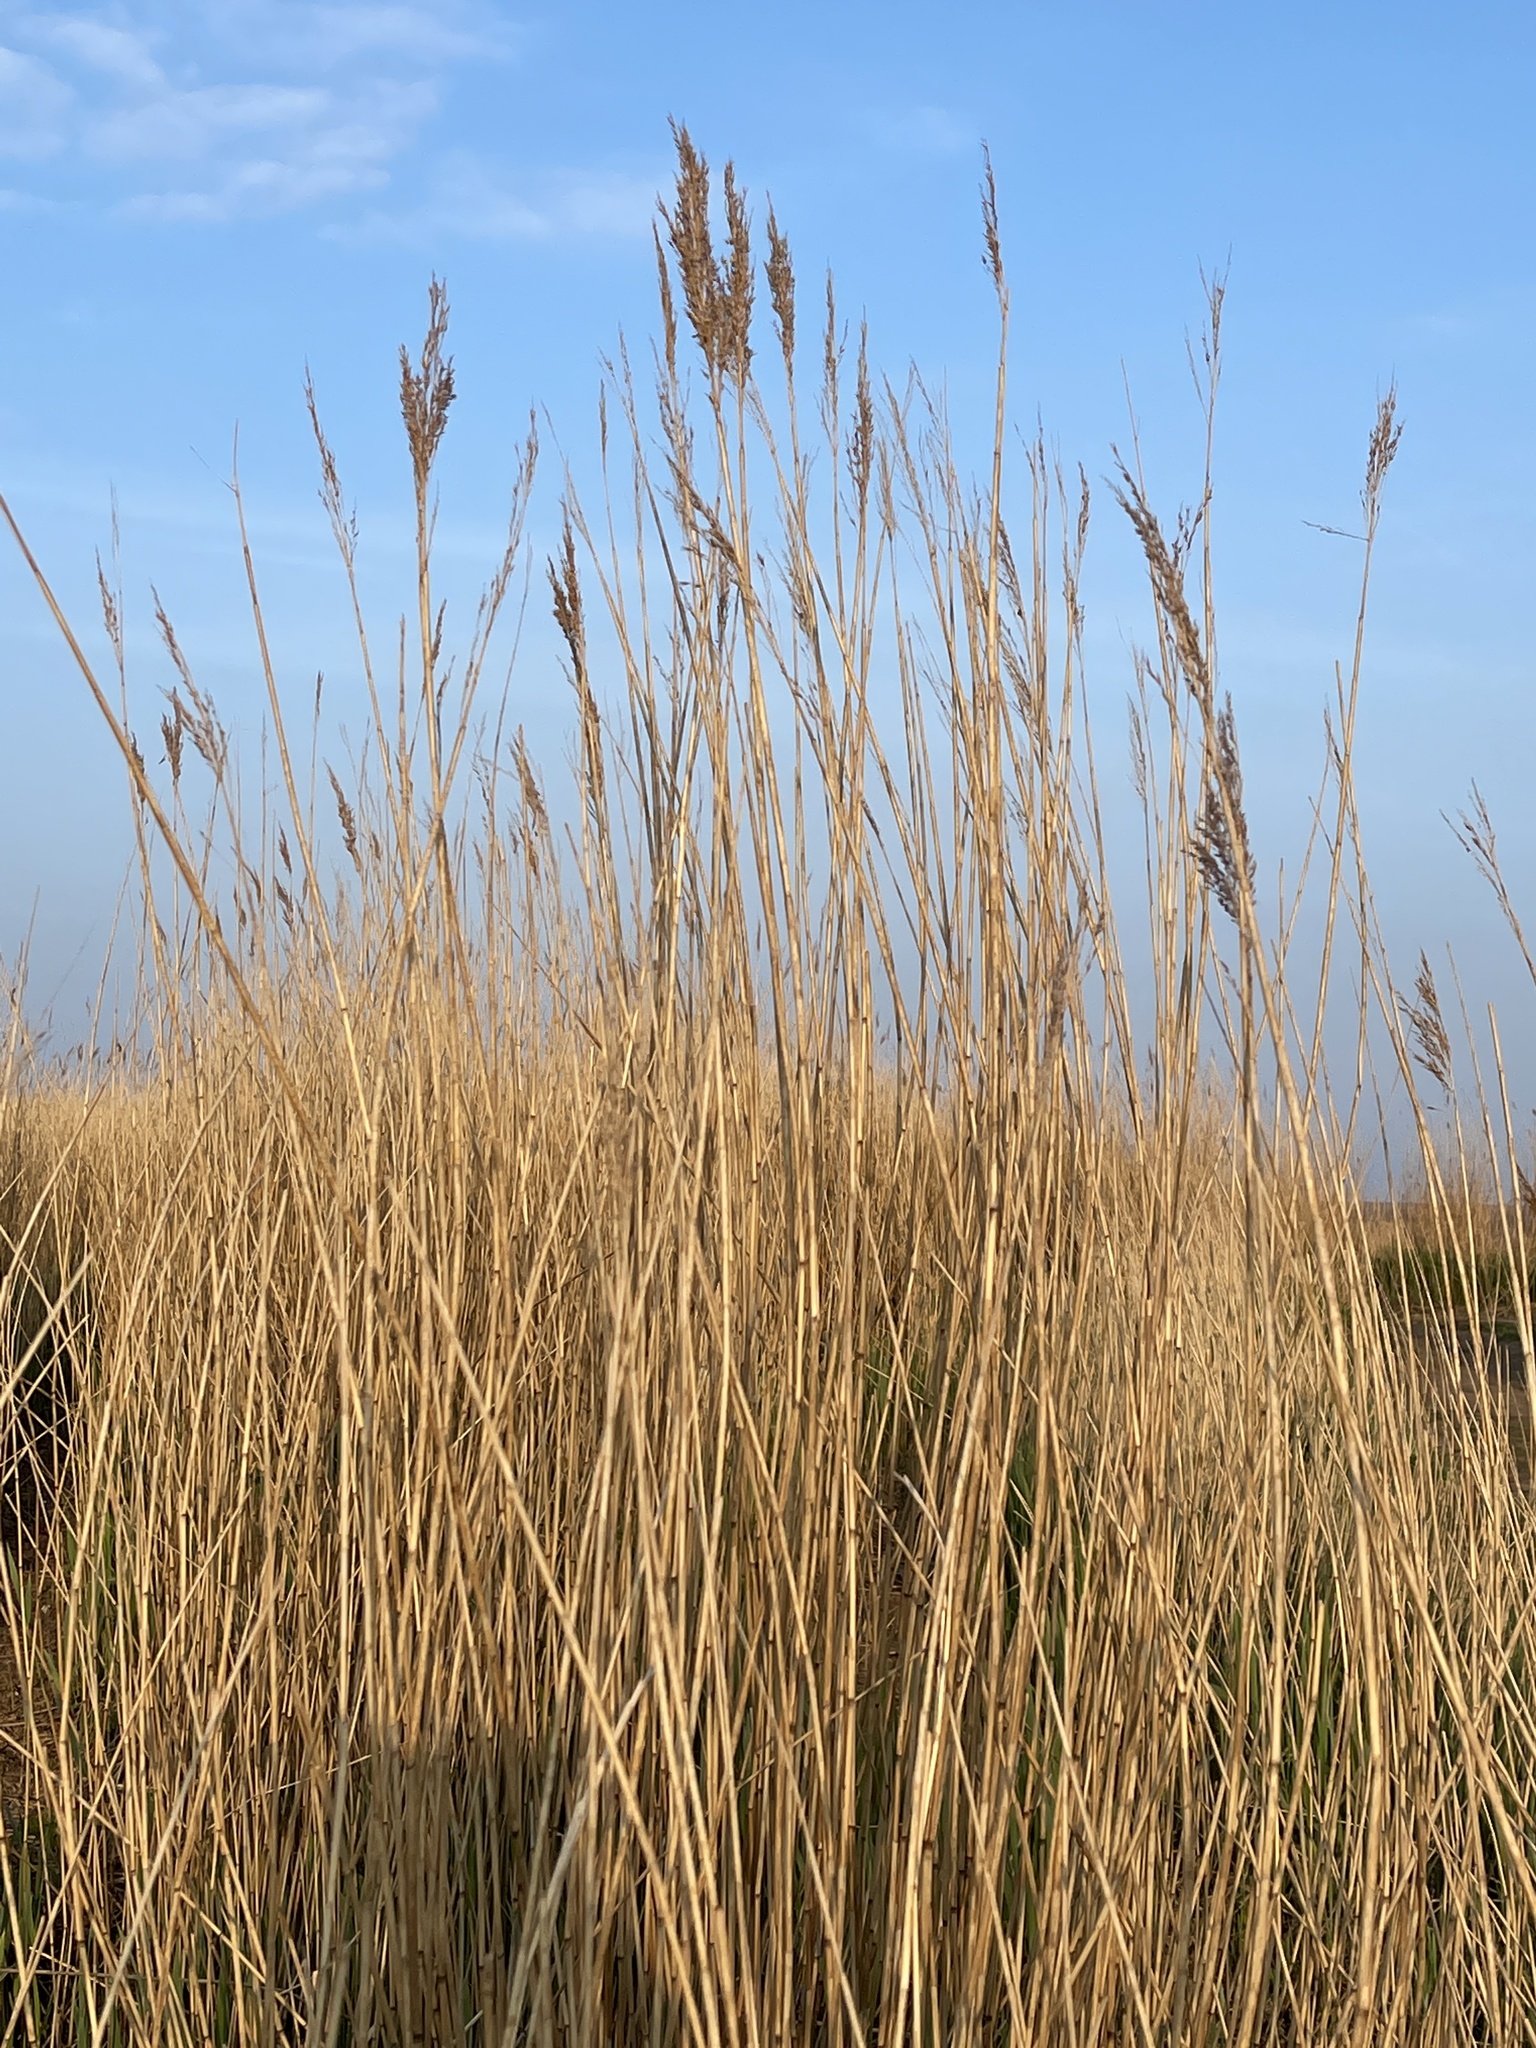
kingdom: Plantae
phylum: Tracheophyta
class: Liliopsida
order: Poales
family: Poaceae
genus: Phragmites
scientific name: Phragmites australis
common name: Common reed
